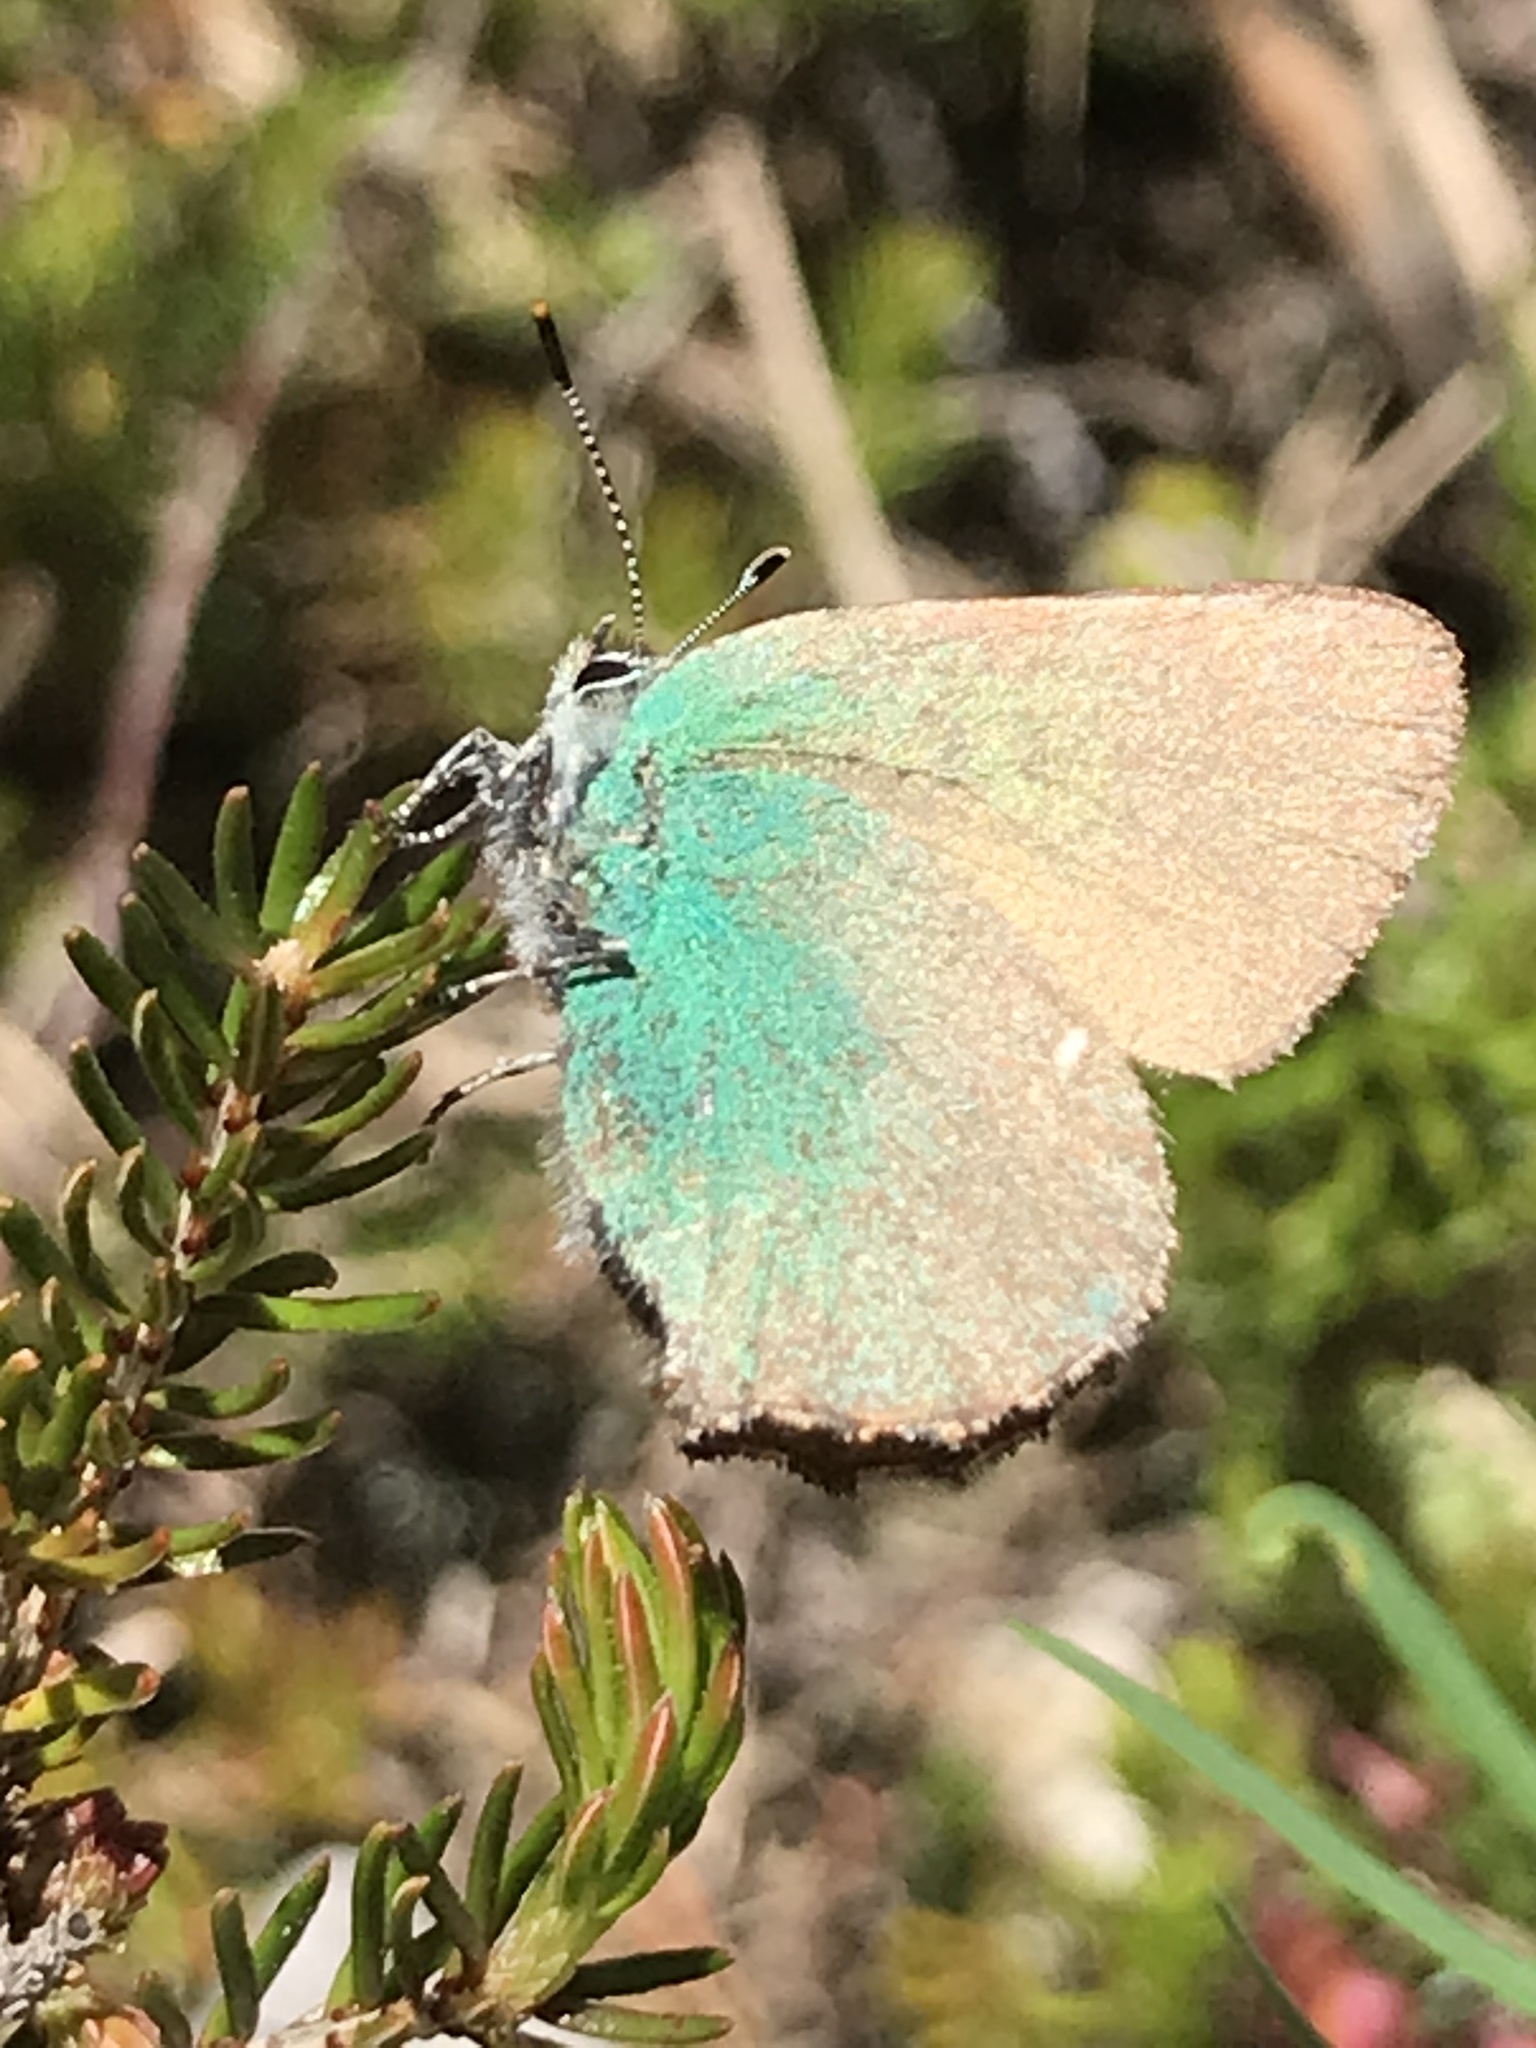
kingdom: Animalia
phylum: Arthropoda
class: Insecta
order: Lepidoptera
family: Lycaenidae
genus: Callophrys
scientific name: Callophrys rubi
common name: Green hairstreak
